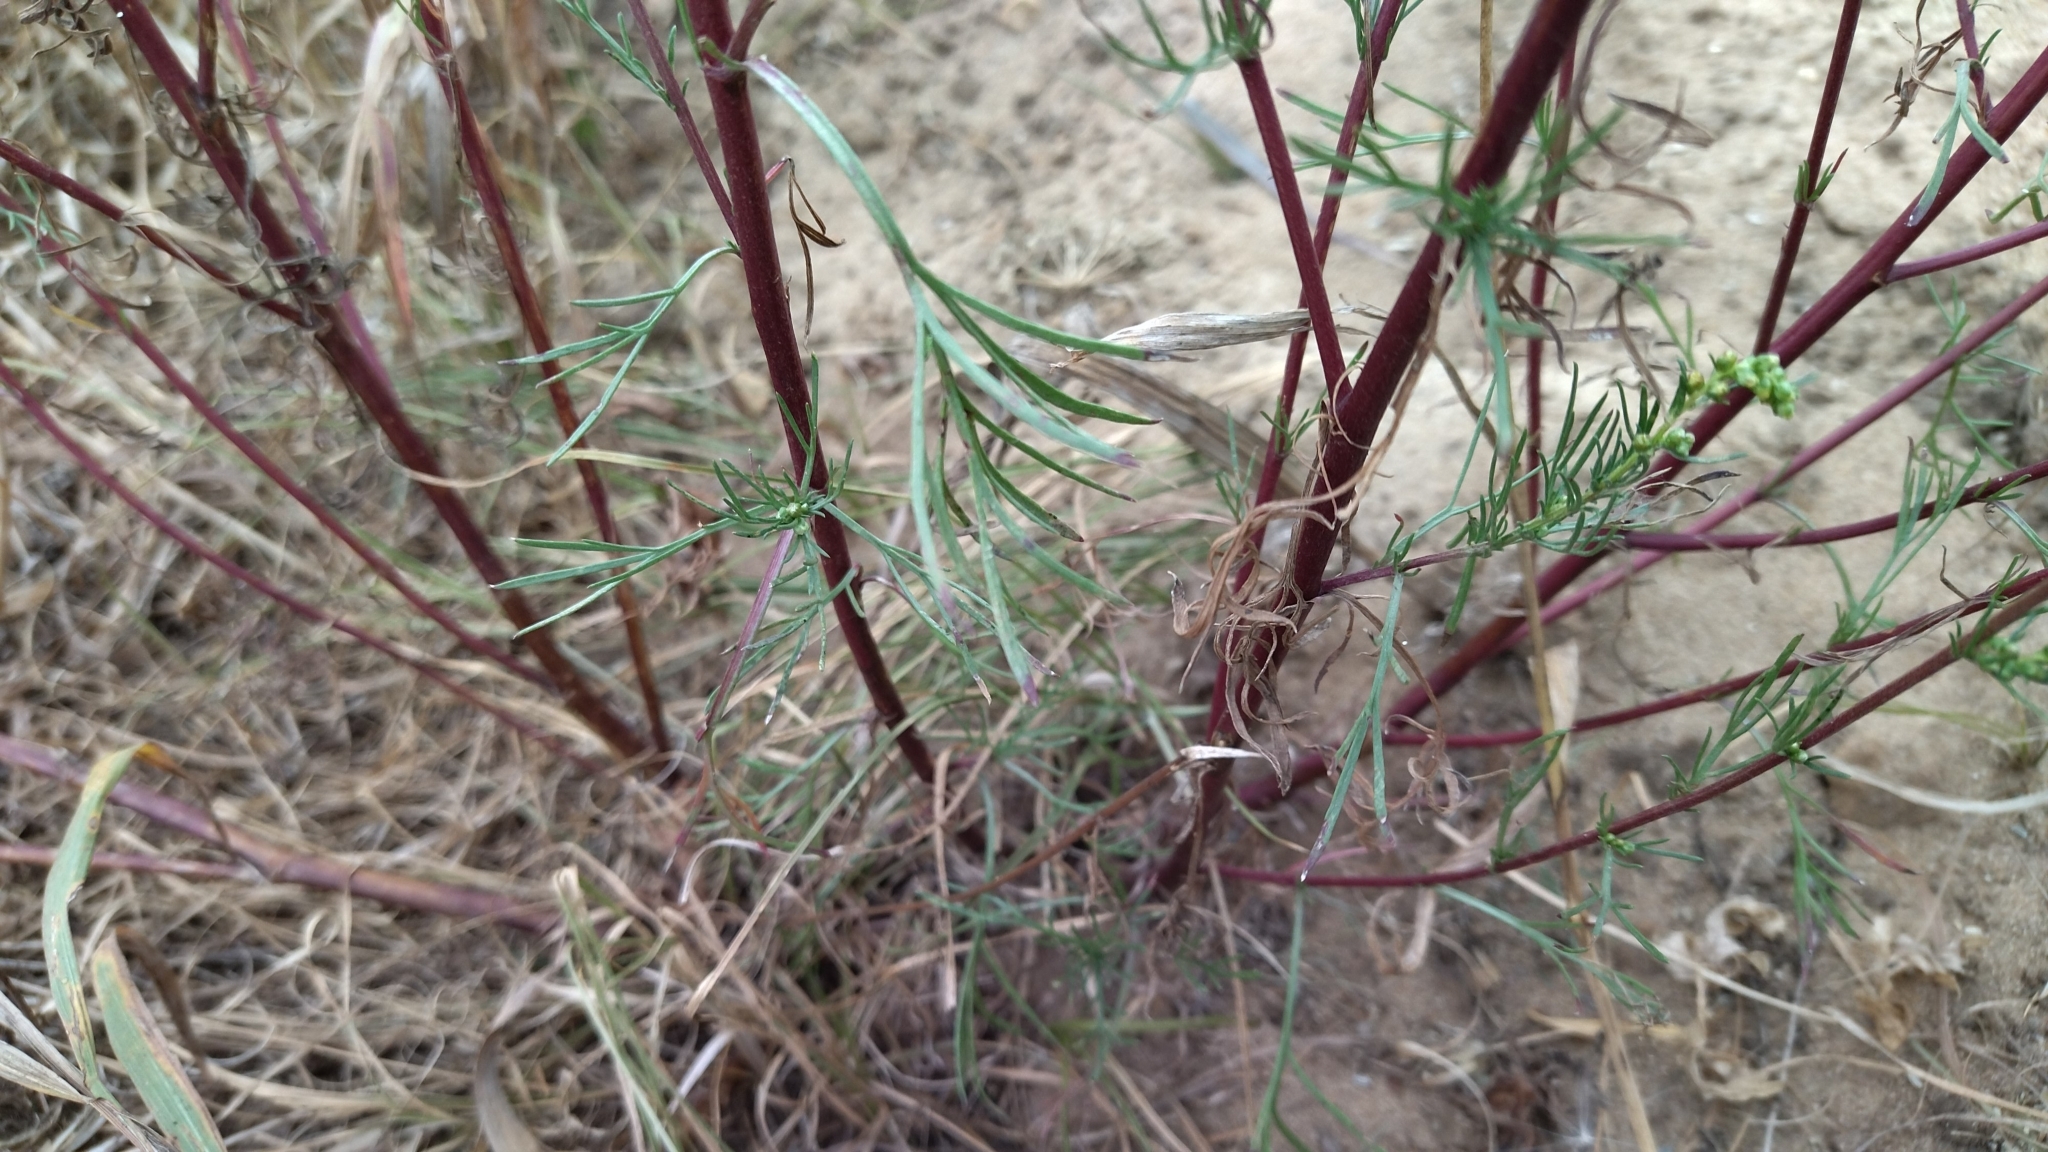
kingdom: Plantae
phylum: Tracheophyta
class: Magnoliopsida
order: Asterales
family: Asteraceae
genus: Artemisia
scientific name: Artemisia campestris
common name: Field wormwood
